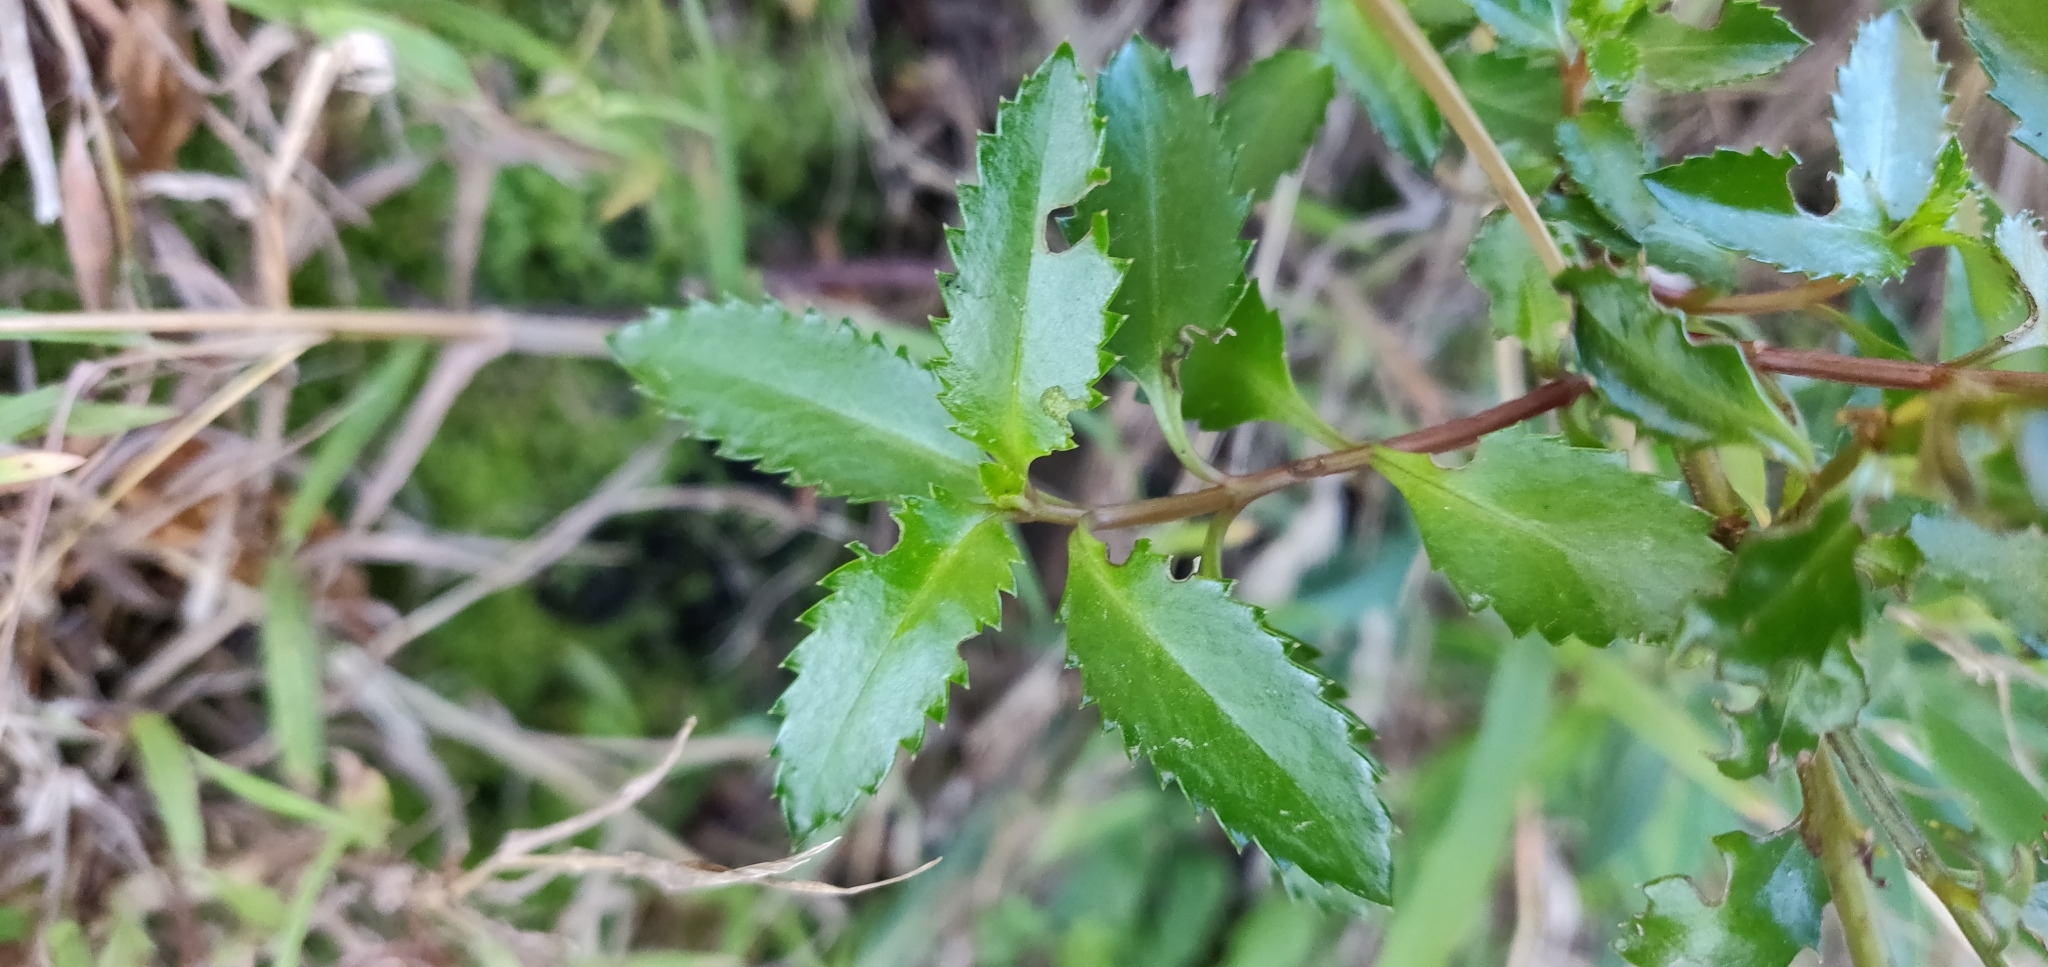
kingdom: Plantae
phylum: Tracheophyta
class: Magnoliopsida
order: Saxifragales
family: Haloragaceae
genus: Haloragis
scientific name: Haloragis erecta
